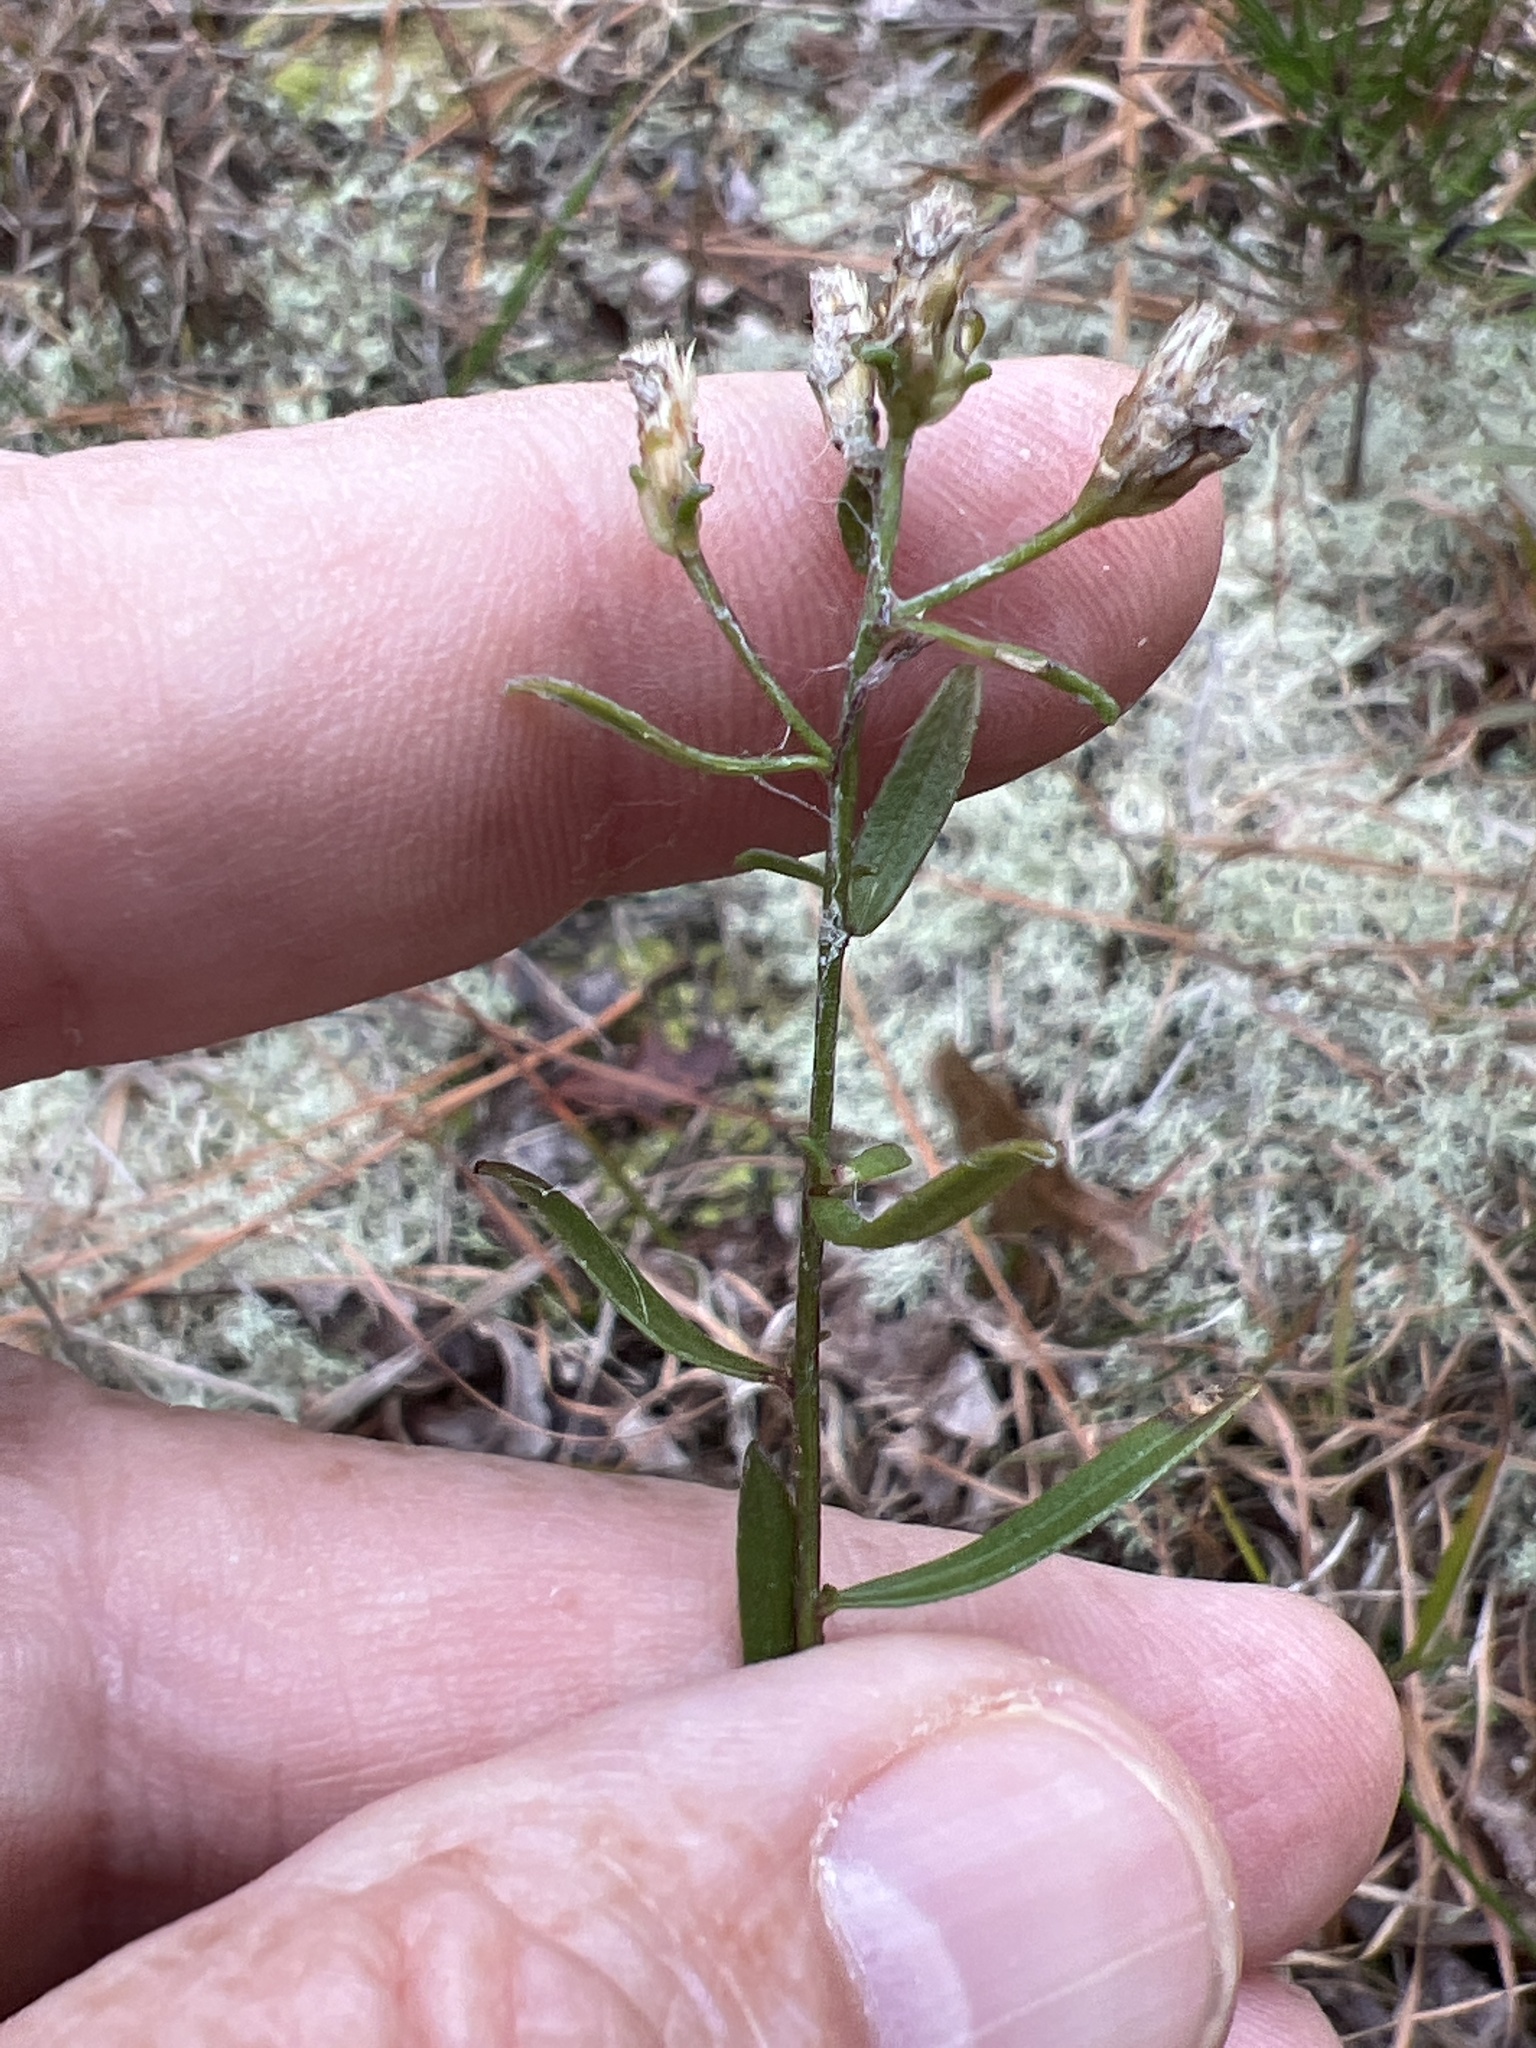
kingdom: Plantae
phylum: Tracheophyta
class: Magnoliopsida
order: Asterales
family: Asteraceae
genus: Sericocarpus
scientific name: Sericocarpus linifolius
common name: Narrow-leaf aster
